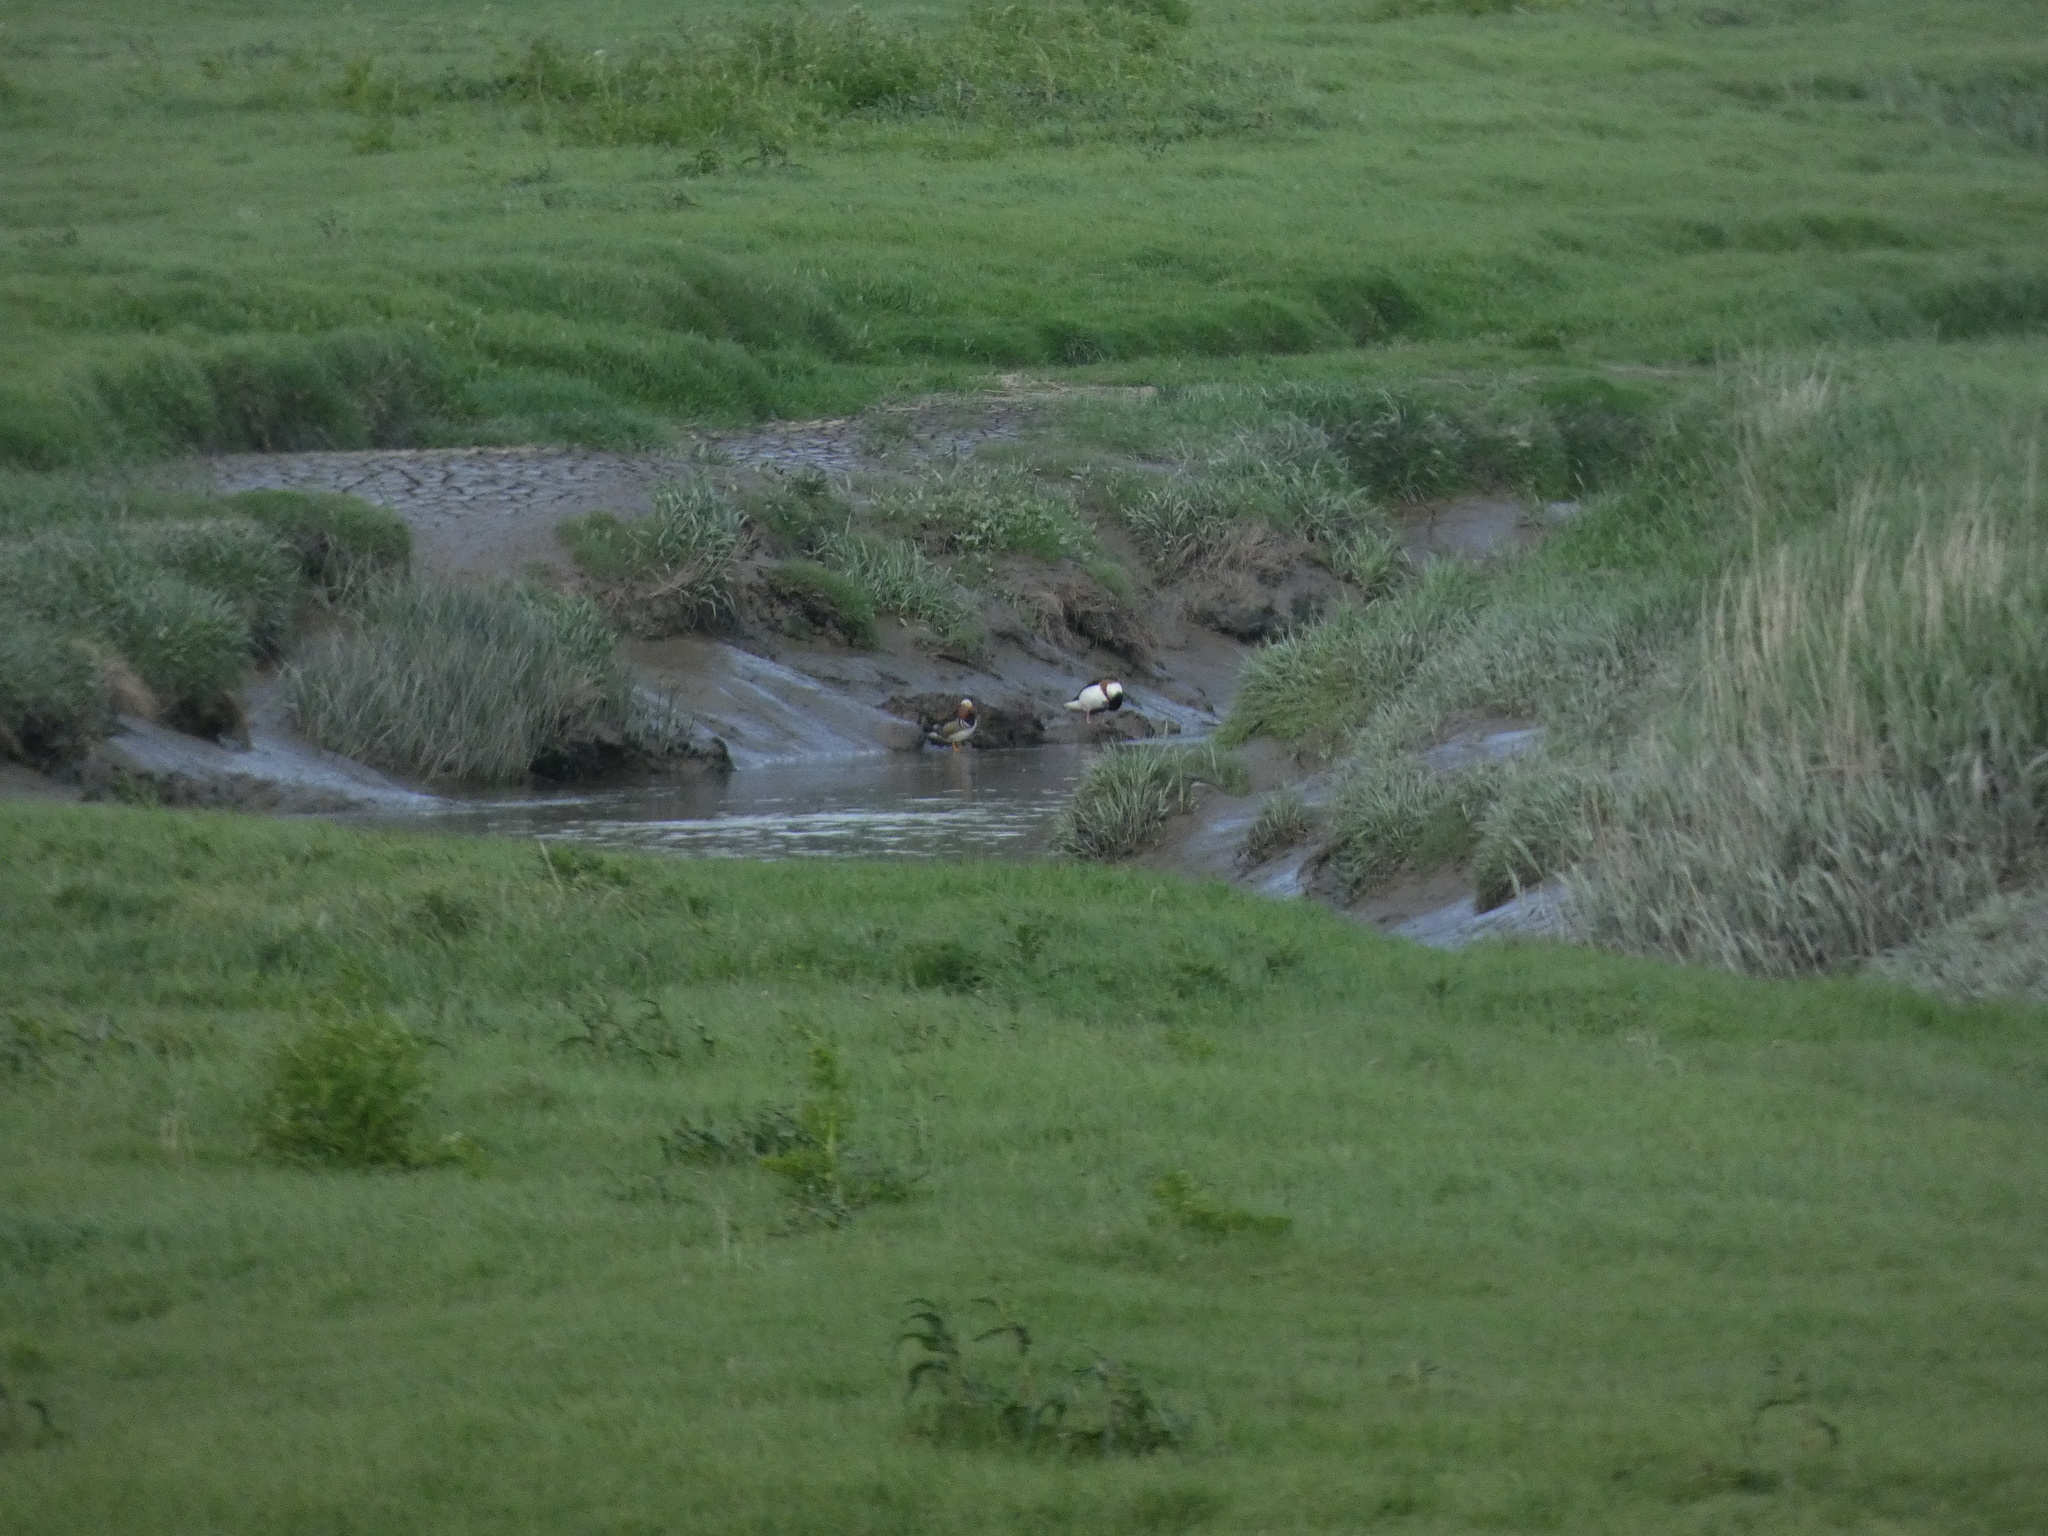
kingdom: Animalia
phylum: Chordata
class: Aves
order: Anseriformes
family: Anatidae
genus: Aix
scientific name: Aix galericulata
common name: Mandarin duck
